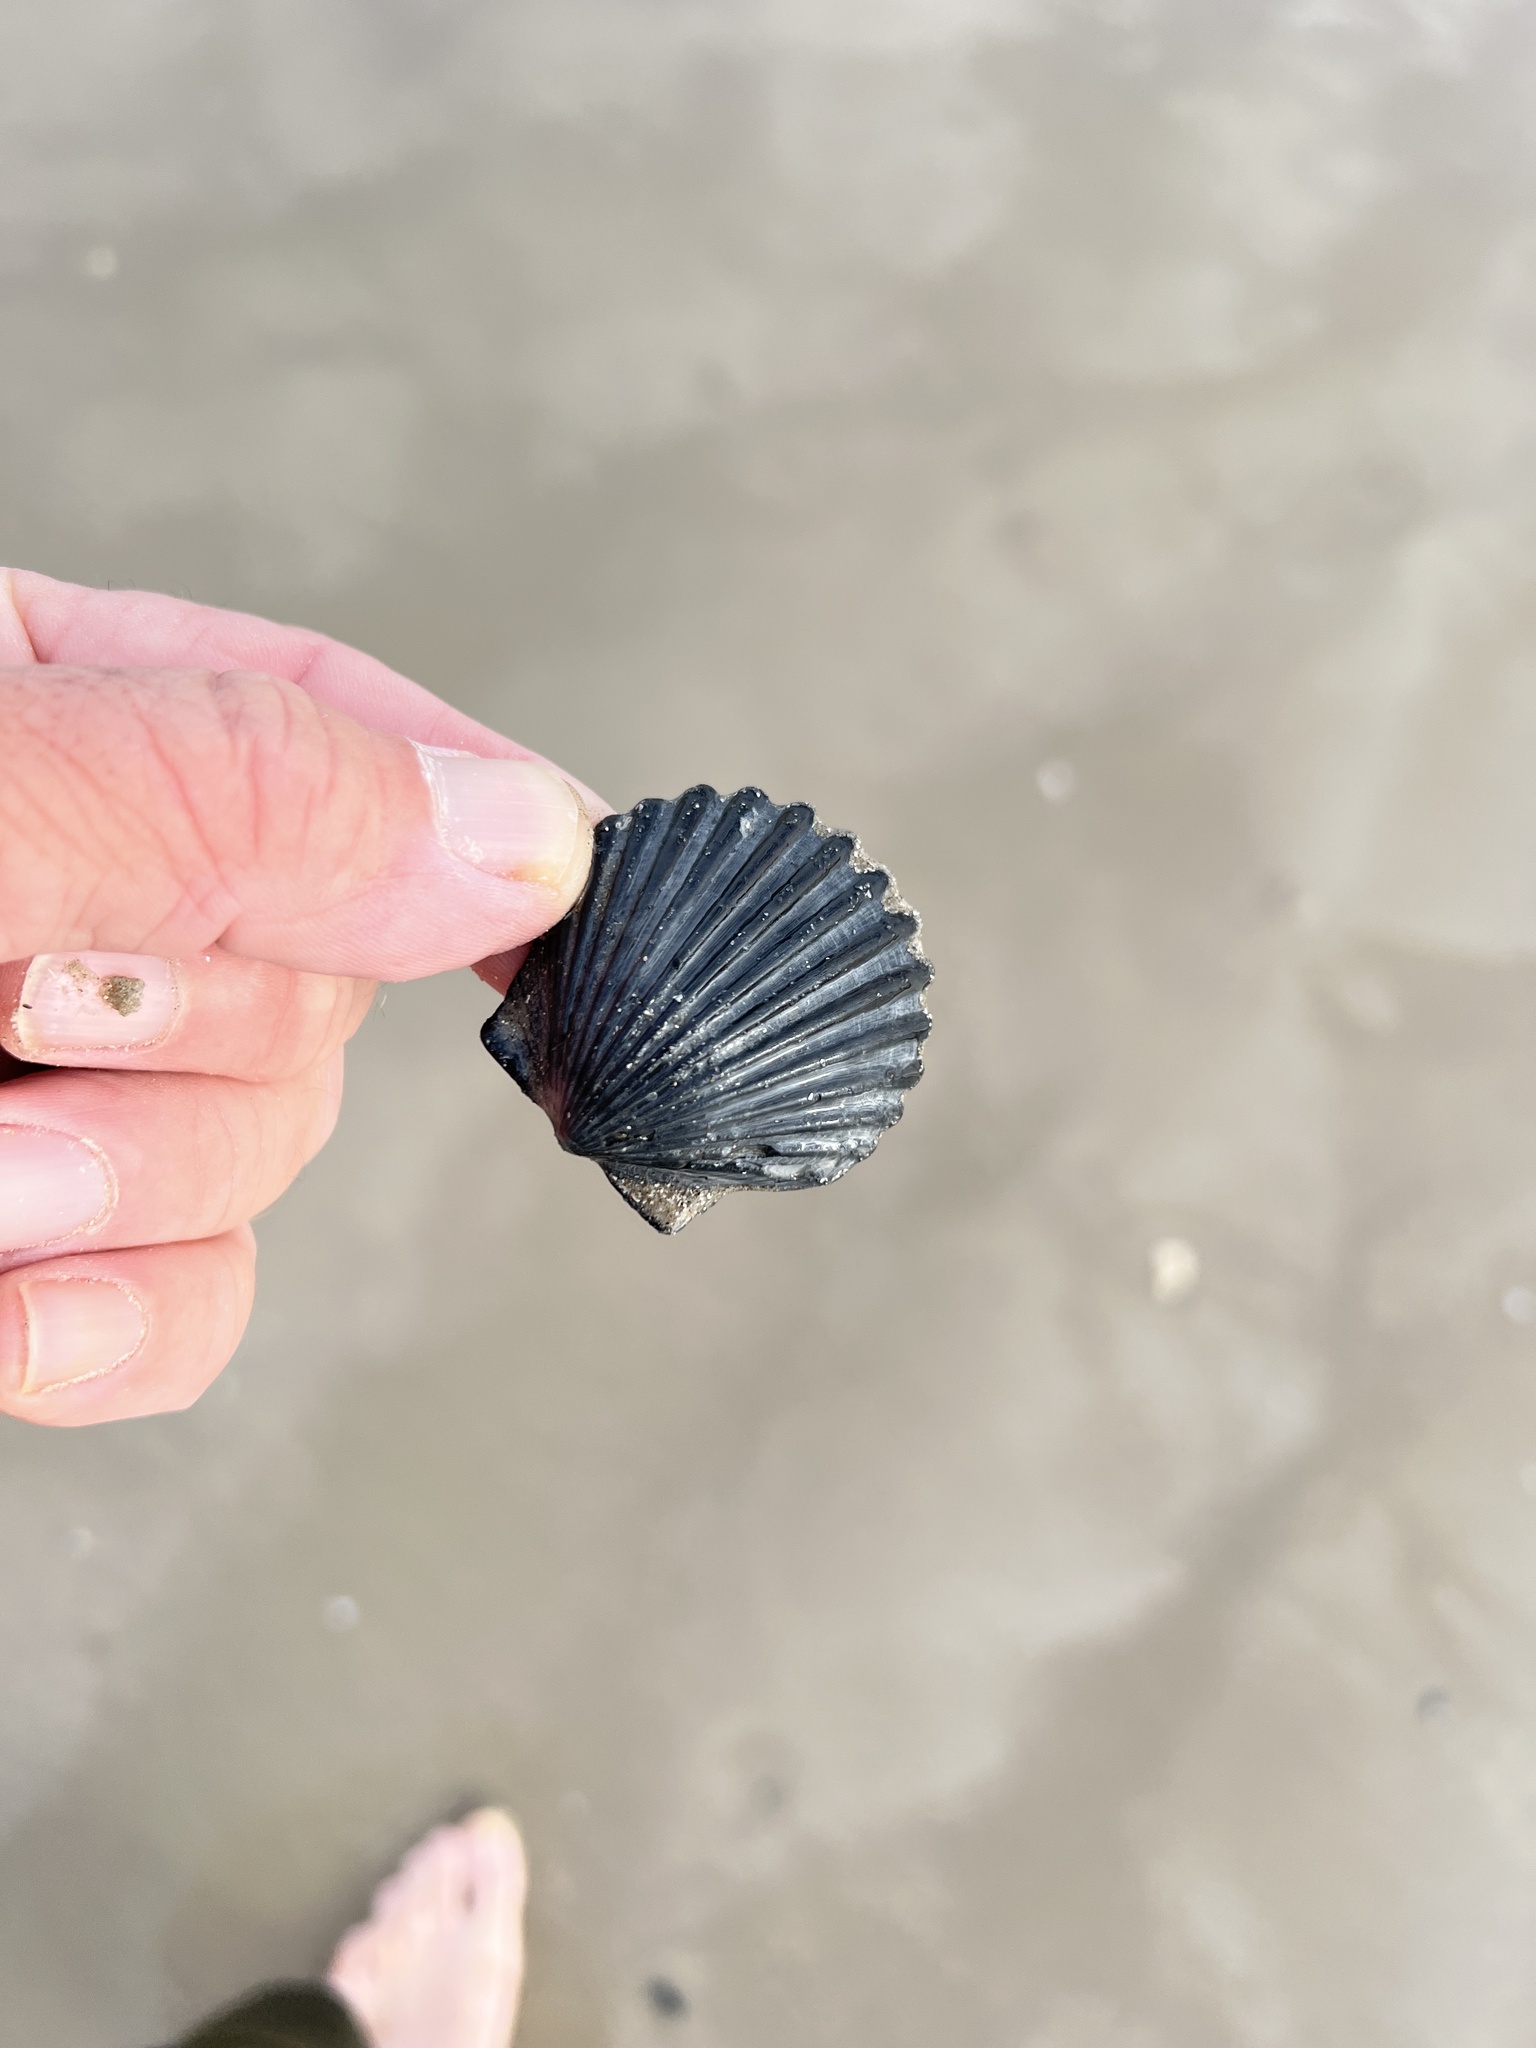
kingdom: Animalia
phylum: Mollusca
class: Bivalvia
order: Pectinida
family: Pectinidae
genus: Argopecten
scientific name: Argopecten irradians
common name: Atlantic bay scallop
